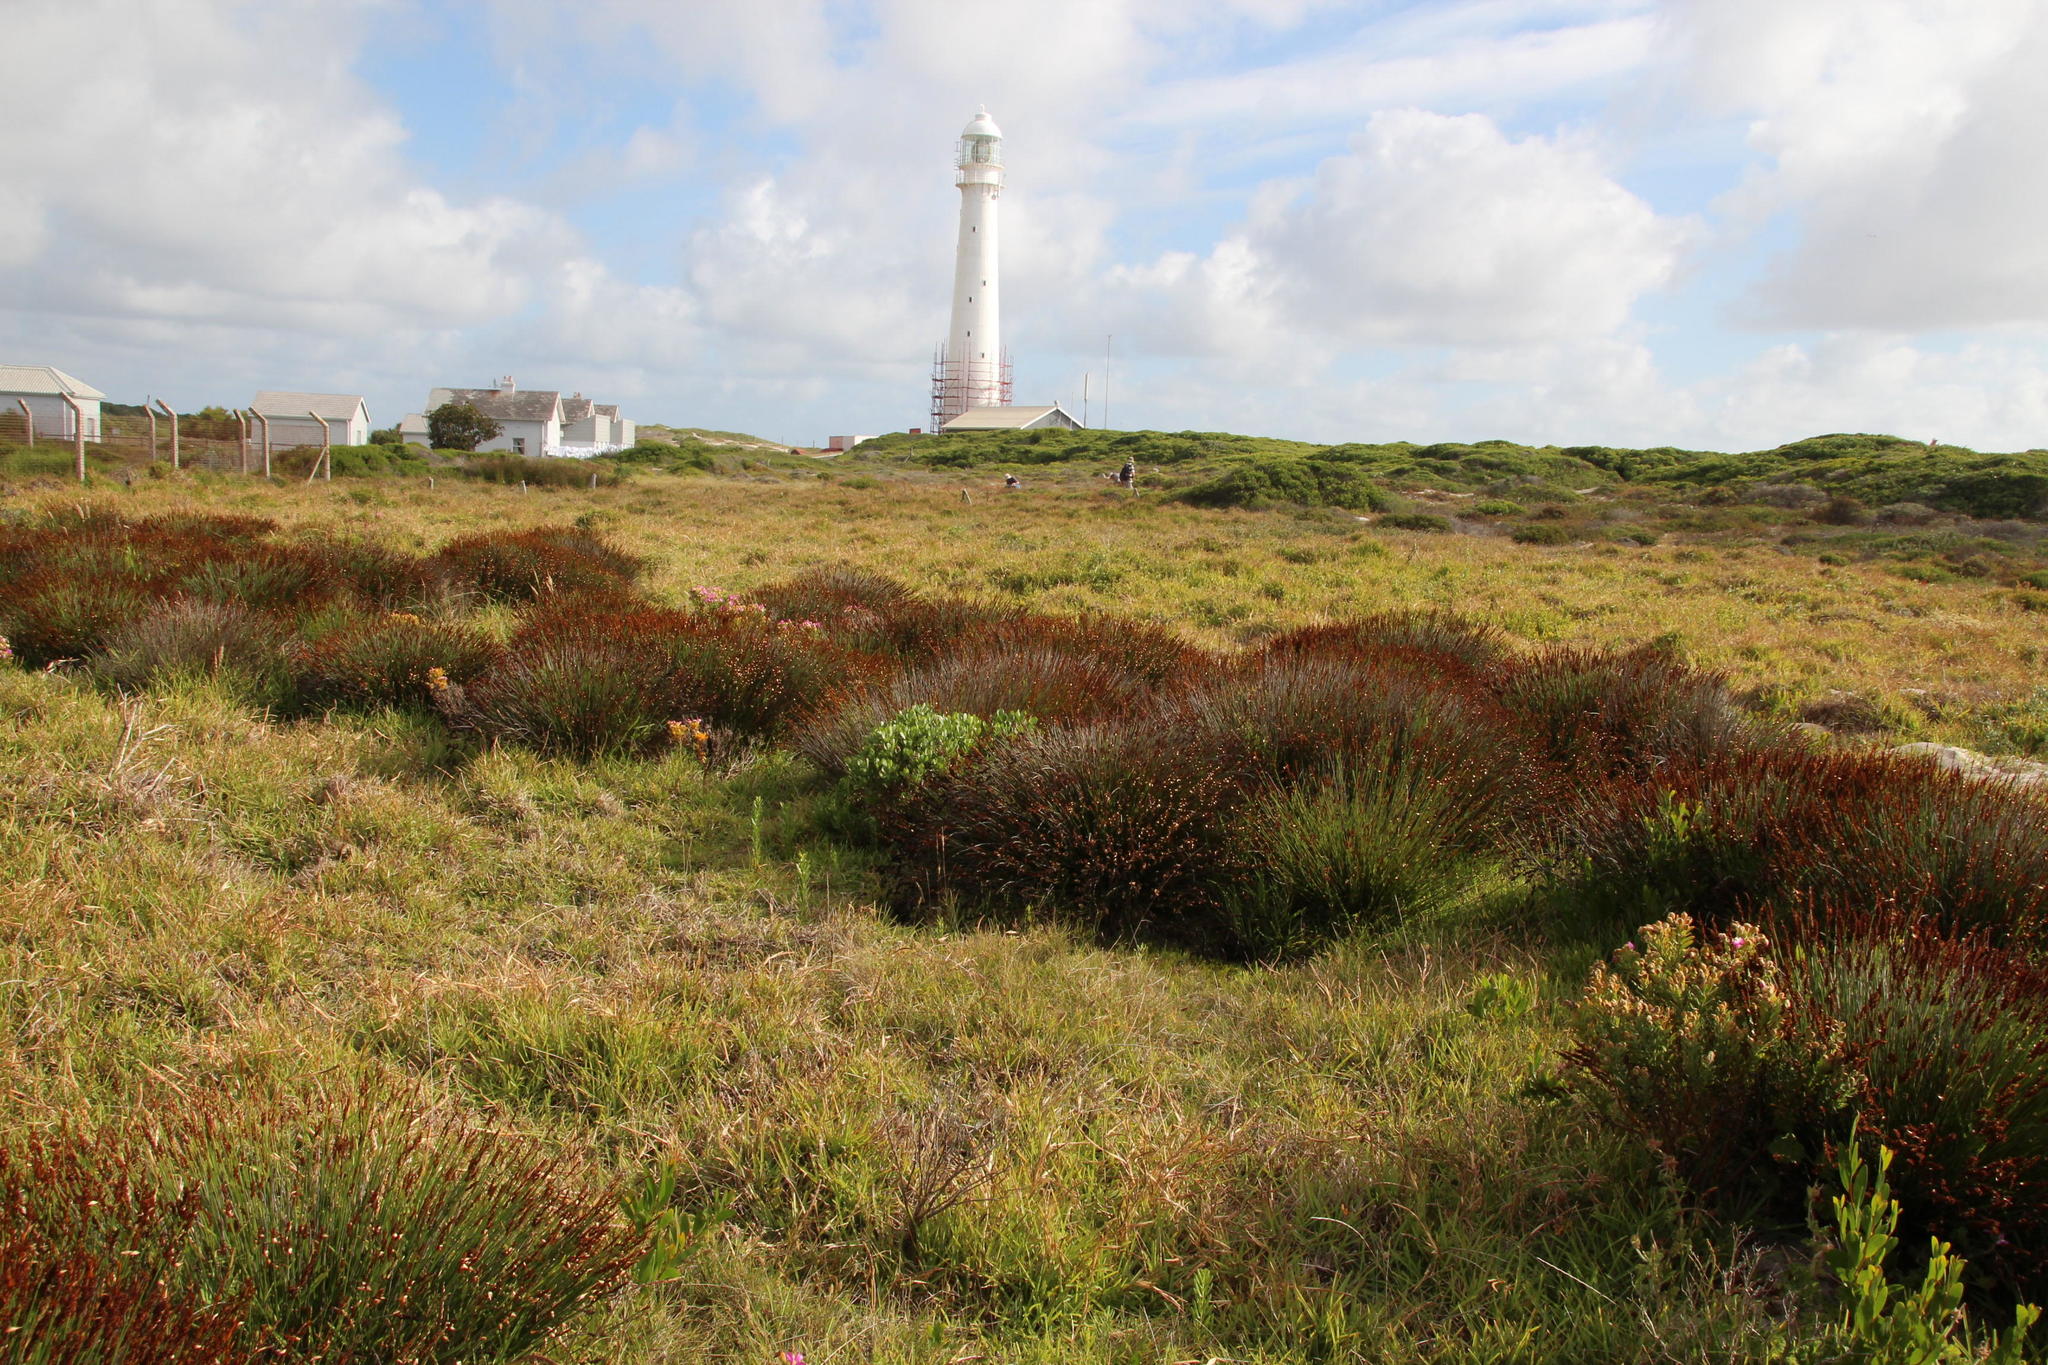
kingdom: Plantae
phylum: Tracheophyta
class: Liliopsida
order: Poales
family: Poaceae
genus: Stenotaphrum
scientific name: Stenotaphrum secundatum
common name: St. augustine grass
